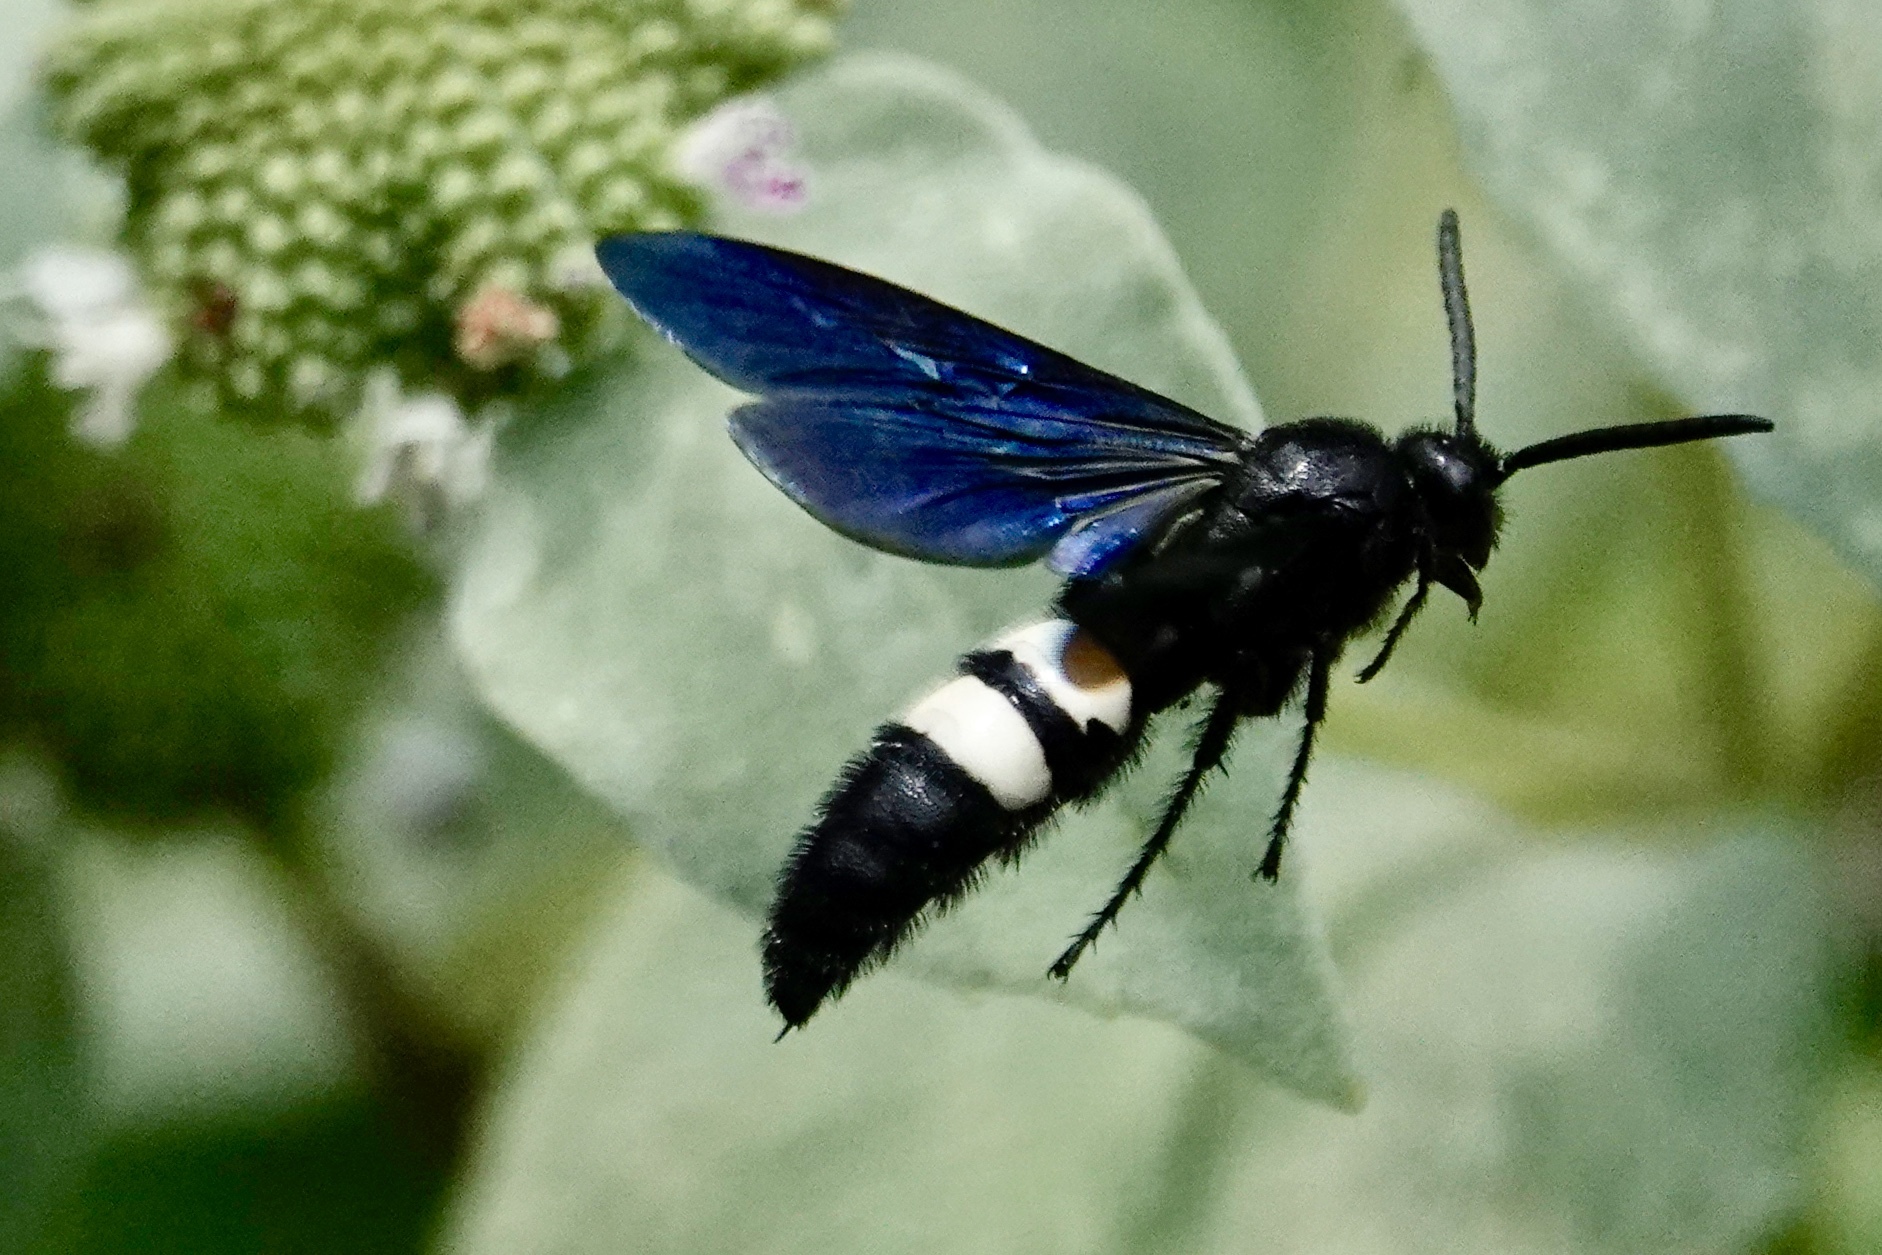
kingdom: Animalia
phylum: Arthropoda
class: Insecta
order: Hymenoptera
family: Scoliidae
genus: Scolia
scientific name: Scolia bicincta
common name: Double-banded scoliid wasp
